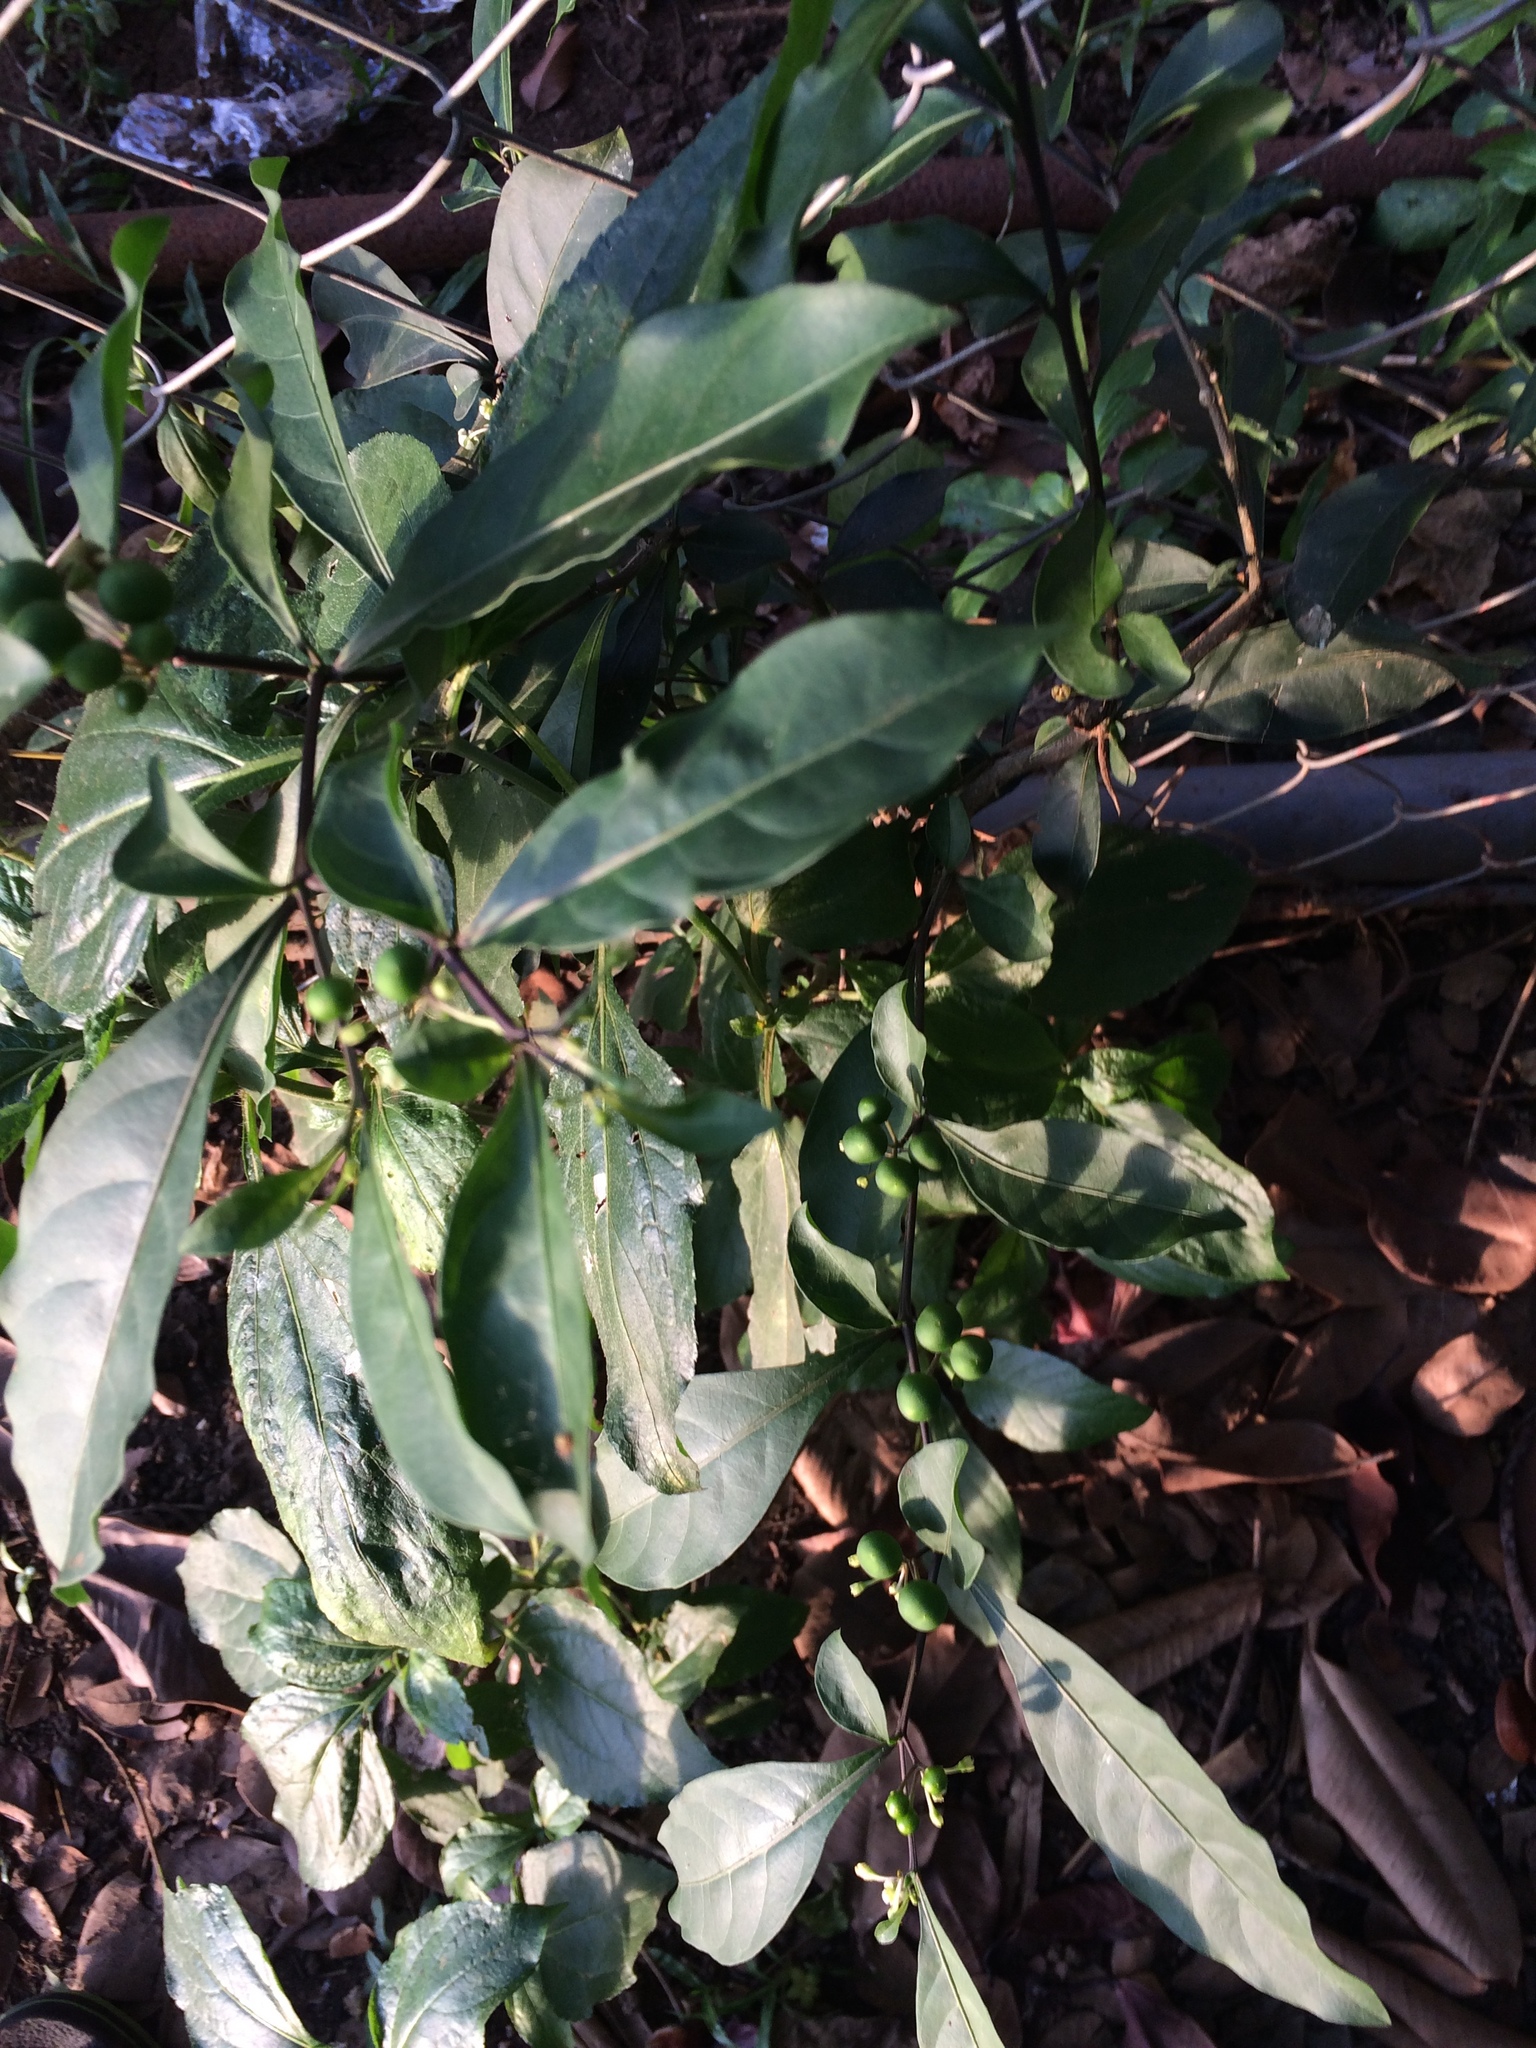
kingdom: Plantae
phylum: Tracheophyta
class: Magnoliopsida
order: Solanales
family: Solanaceae
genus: Solanum
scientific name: Solanum diphyllum
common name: Twoleaf nightshade
